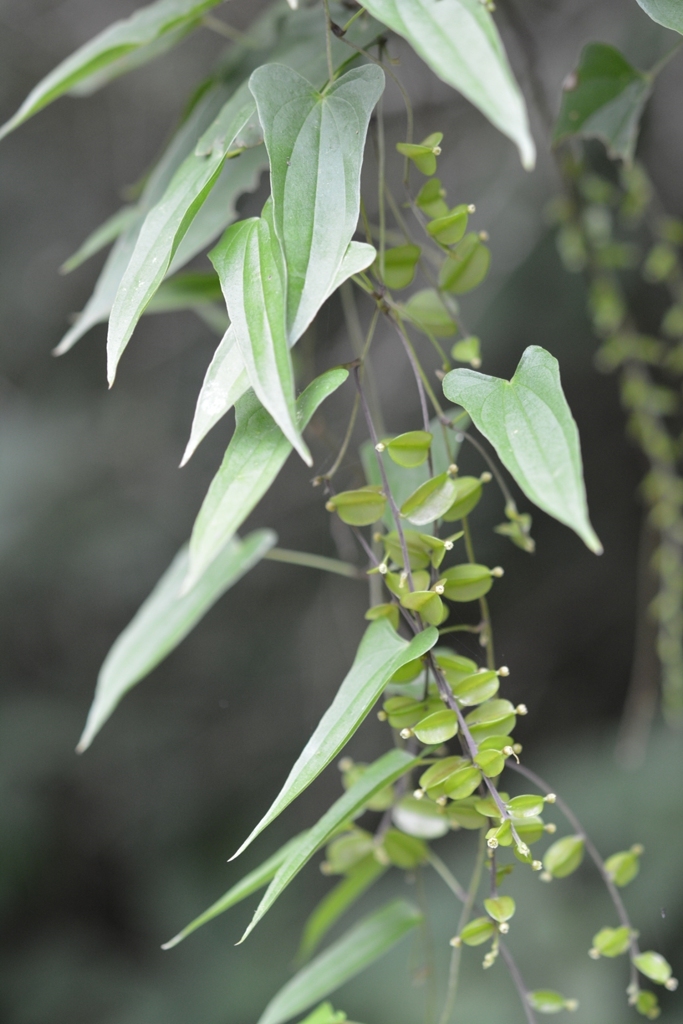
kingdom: Plantae
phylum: Tracheophyta
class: Liliopsida
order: Dioscoreales
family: Dioscoreaceae
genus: Dioscorea
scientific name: Dioscorea pilosiuscula
